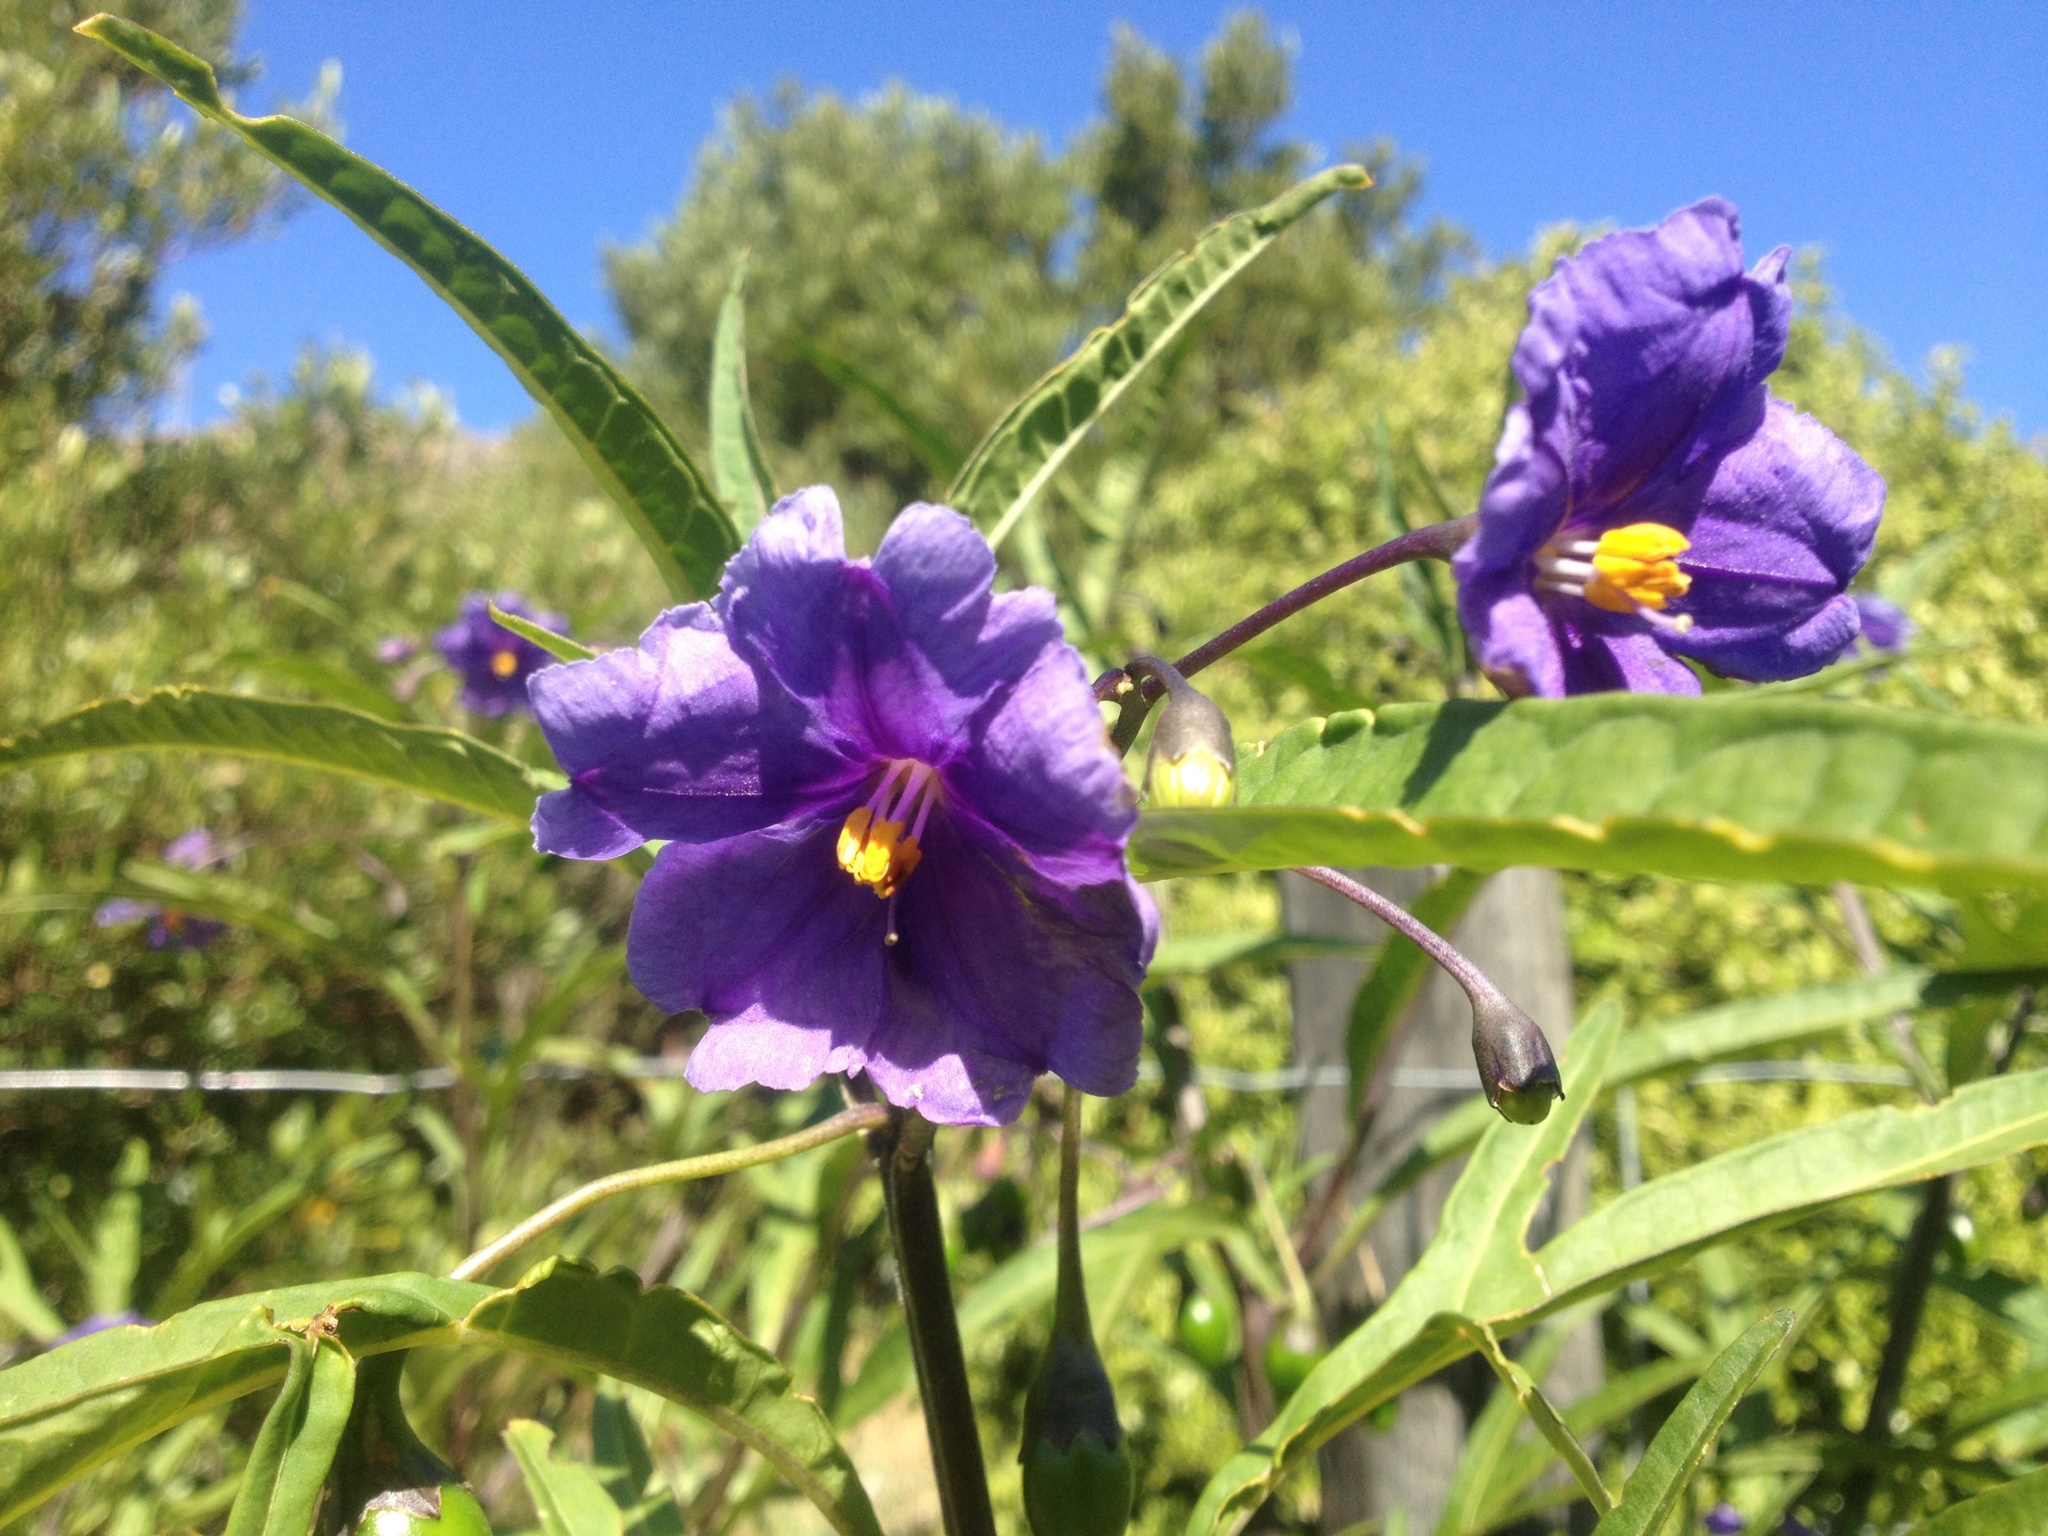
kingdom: Plantae
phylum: Tracheophyta
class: Magnoliopsida
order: Solanales
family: Solanaceae
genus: Solanum
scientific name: Solanum laciniatum
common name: Kangaroo-apple
